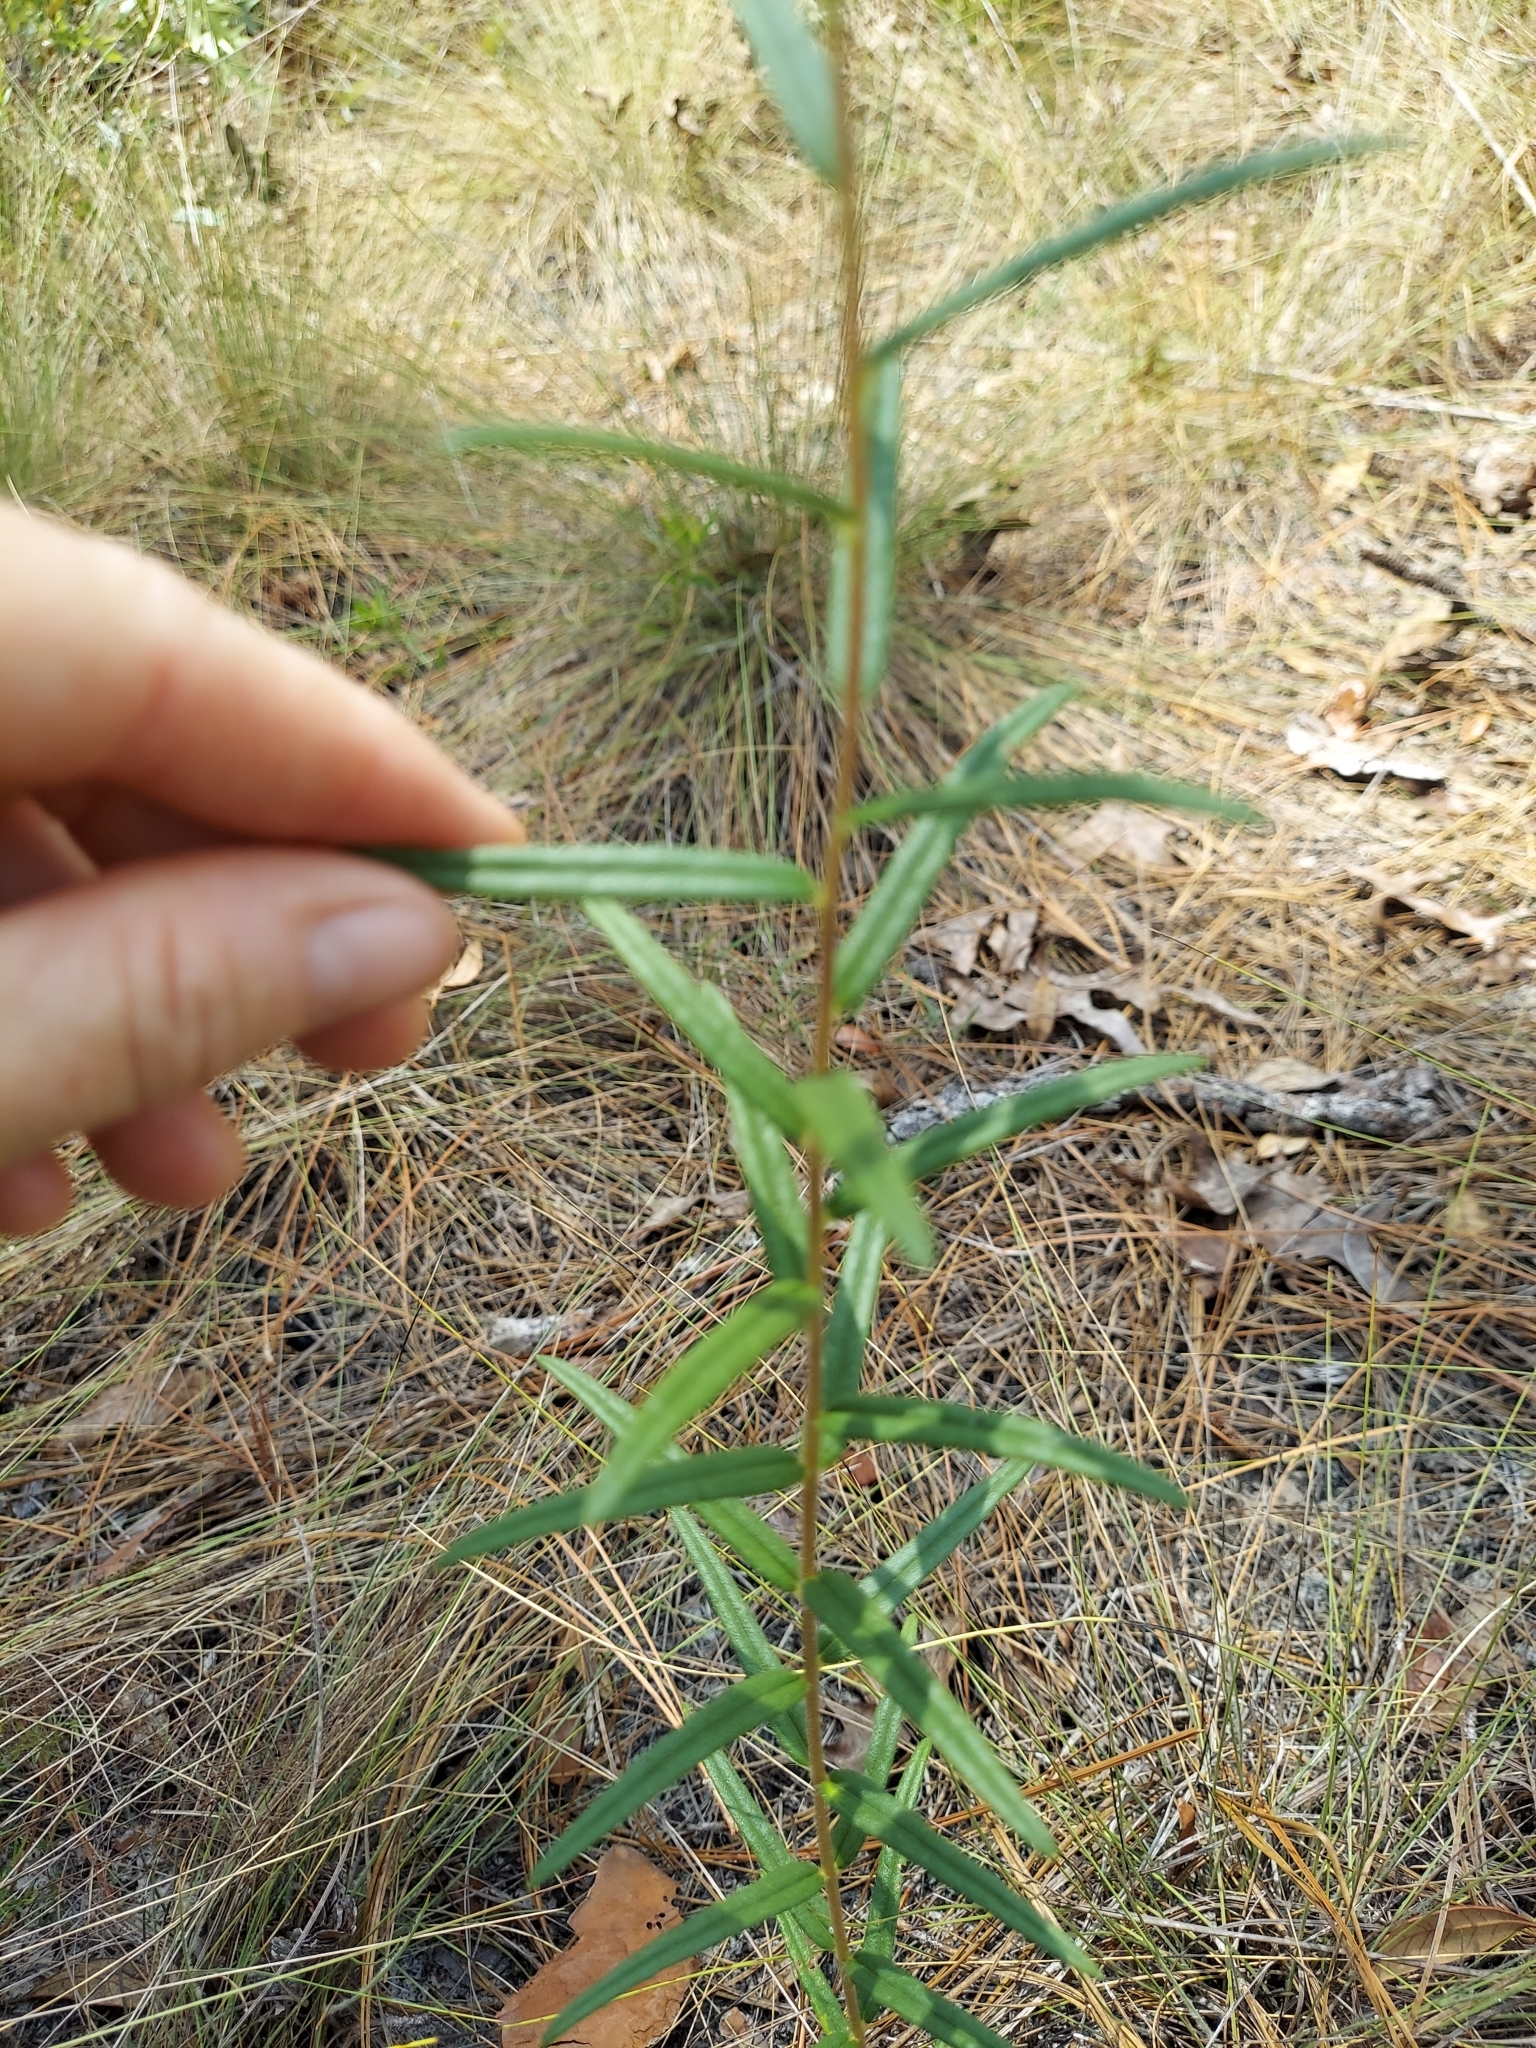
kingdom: Plantae
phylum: Tracheophyta
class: Magnoliopsida
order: Asterales
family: Asteraceae
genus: Phoebanthus
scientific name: Phoebanthus grandiflora
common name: Florida false sunflower
